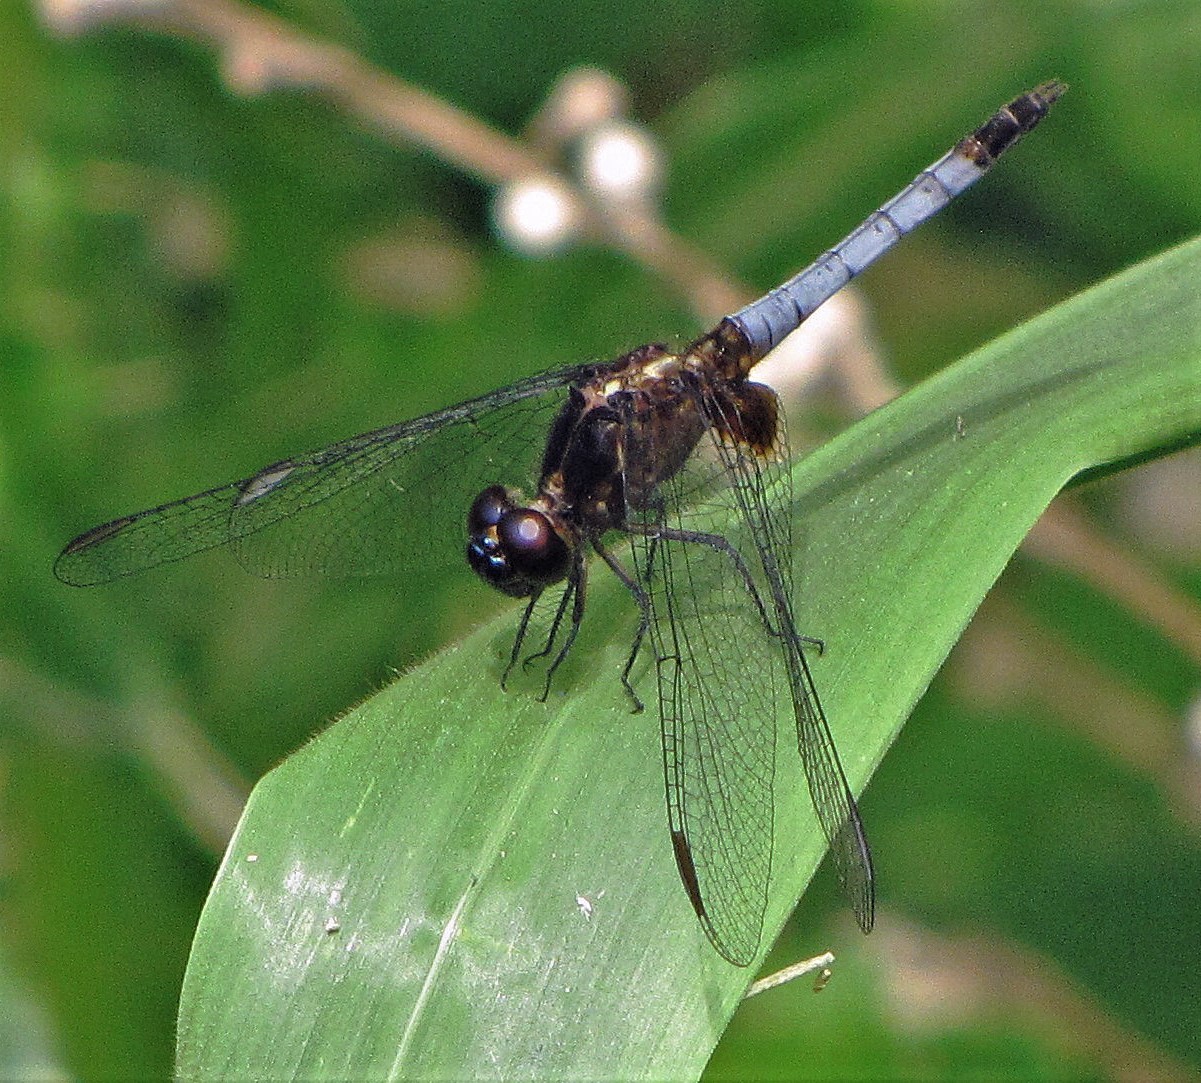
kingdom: Animalia
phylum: Arthropoda
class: Insecta
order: Odonata
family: Libellulidae
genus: Erythrodiplax
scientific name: Erythrodiplax media
